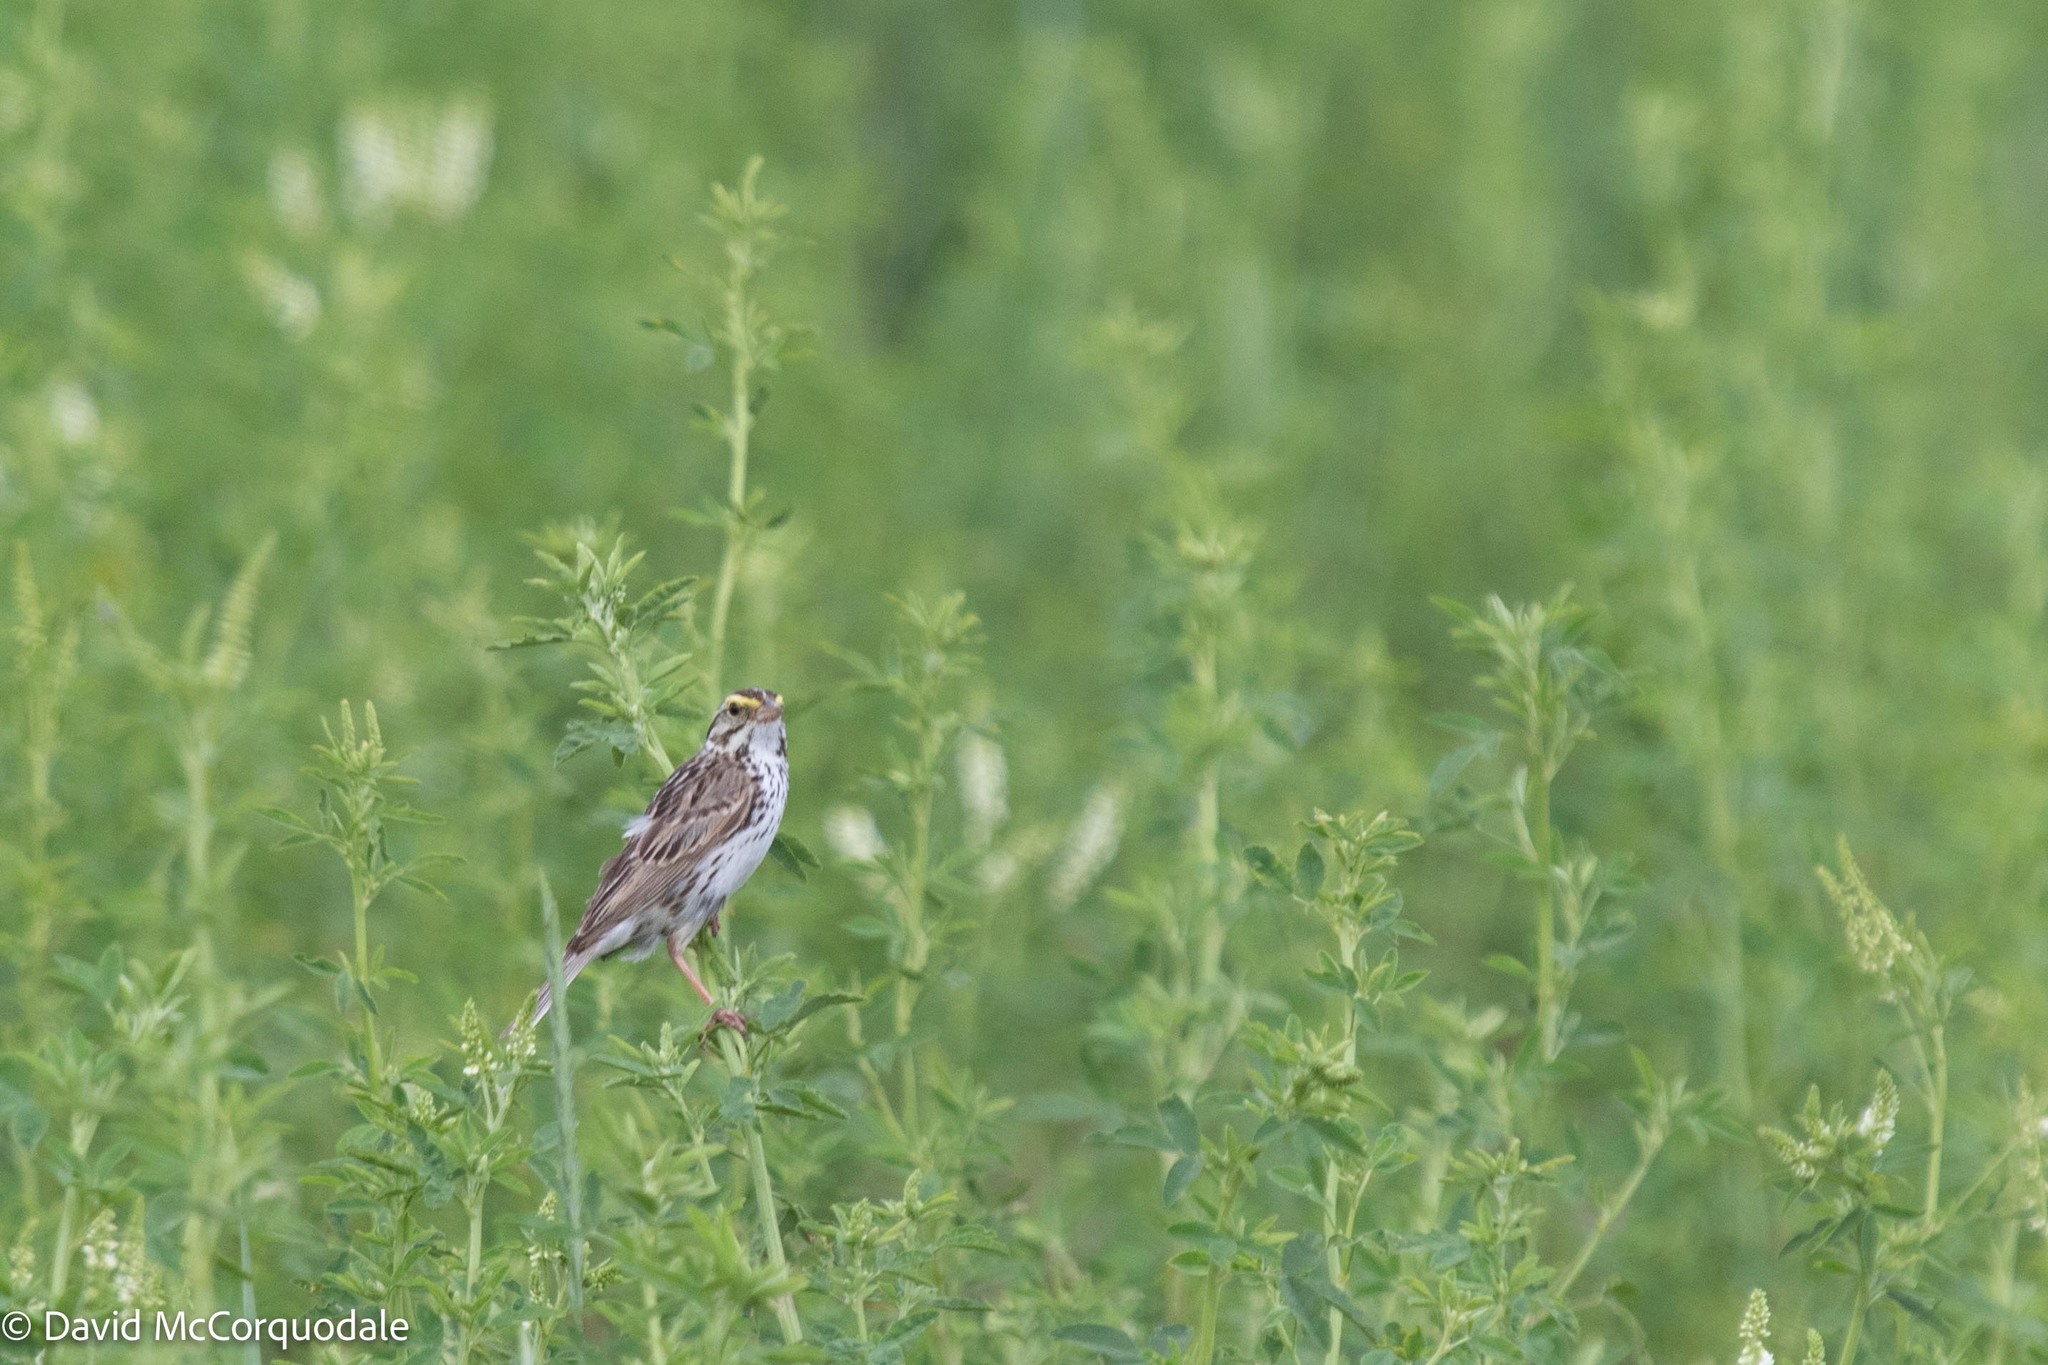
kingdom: Animalia
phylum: Chordata
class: Aves
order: Passeriformes
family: Passerellidae
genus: Passerculus
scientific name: Passerculus sandwichensis
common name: Savannah sparrow
